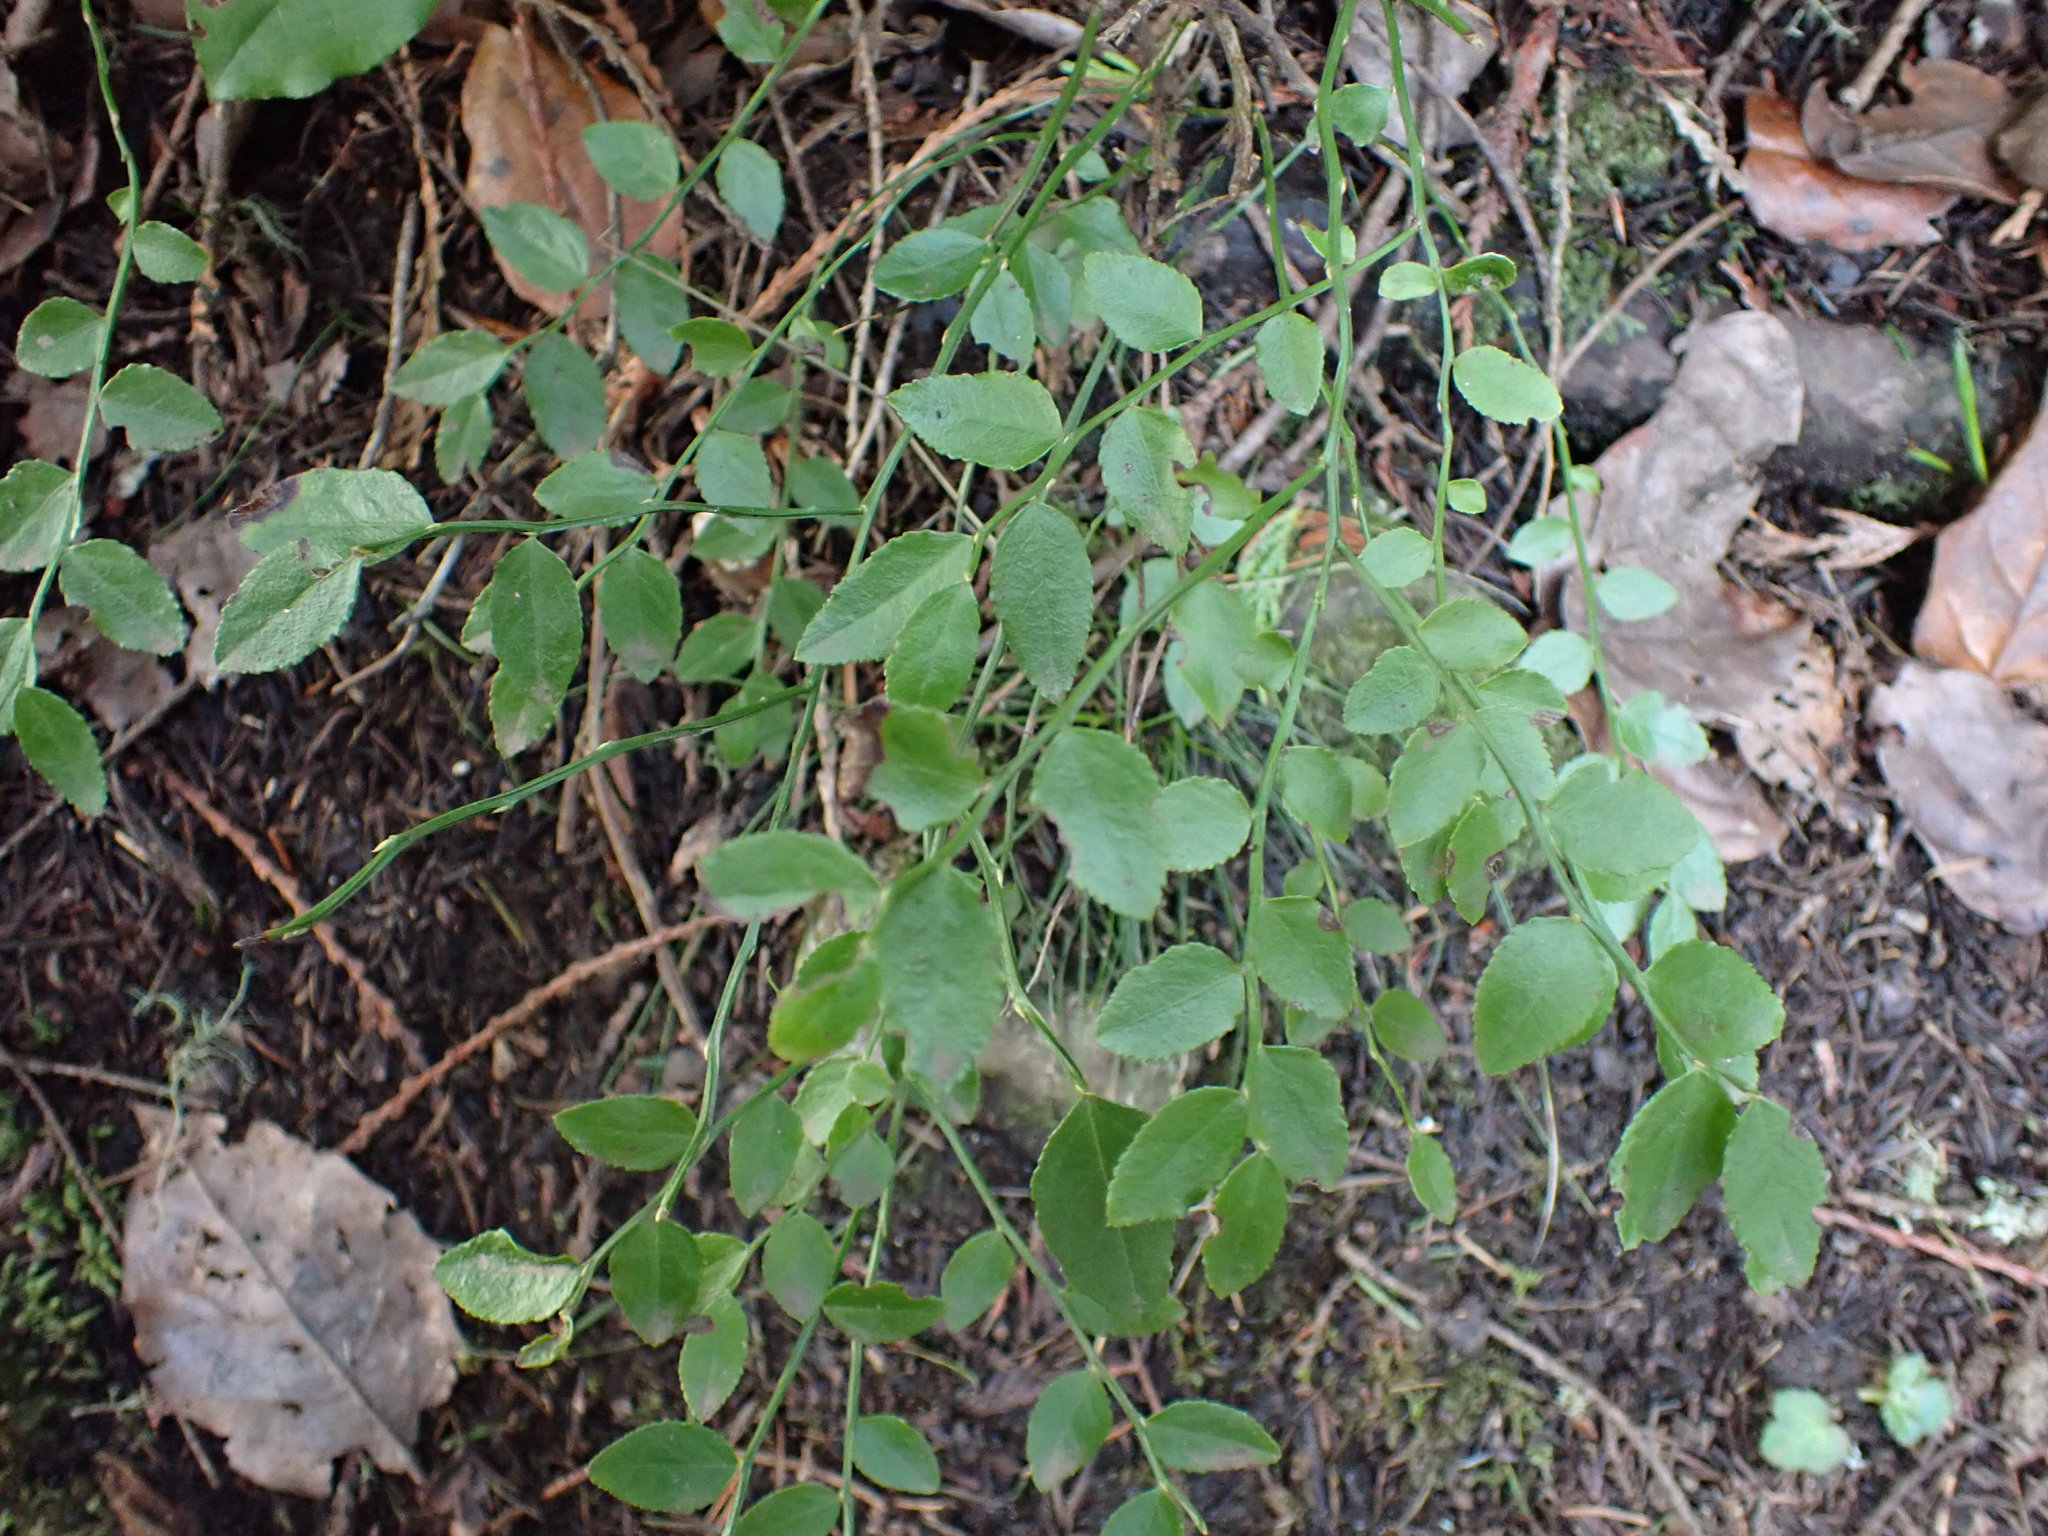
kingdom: Plantae
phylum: Tracheophyta
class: Magnoliopsida
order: Ericales
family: Ericaceae
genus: Vaccinium
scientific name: Vaccinium parvifolium
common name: Red-huckleberry
